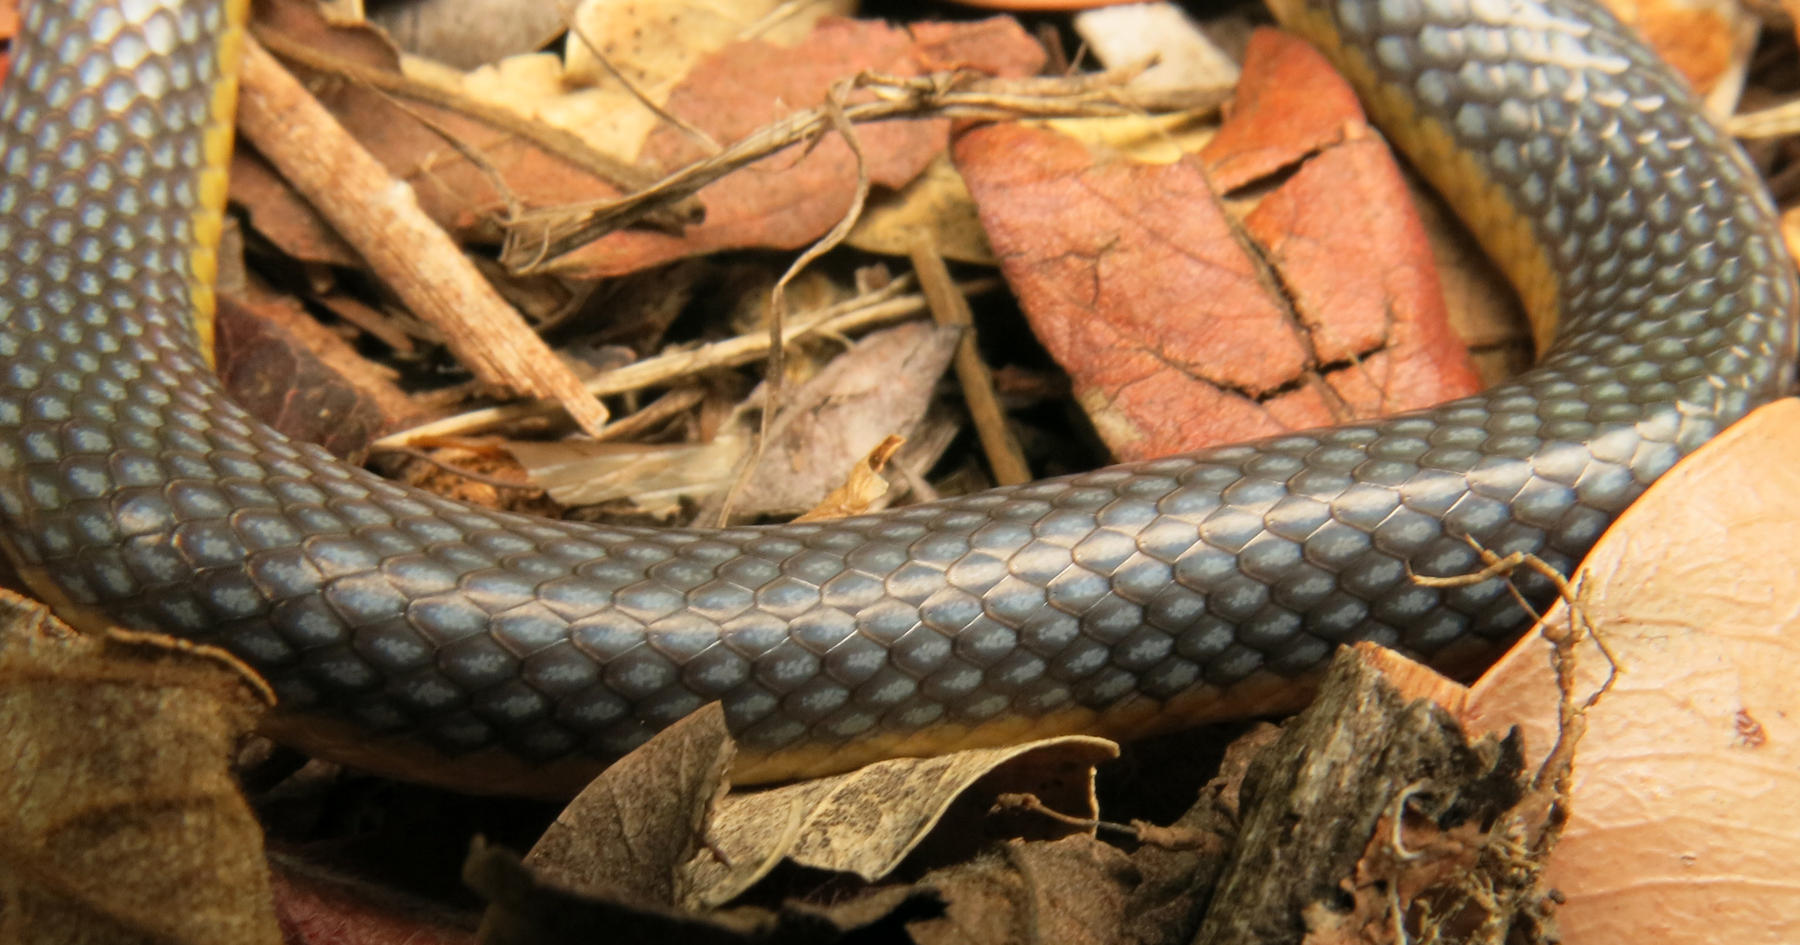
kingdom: Animalia
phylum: Chordata
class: Squamata
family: Prosymnidae
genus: Prosymna
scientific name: Prosymna stuhlmanni
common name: East african shovel-snout snake
